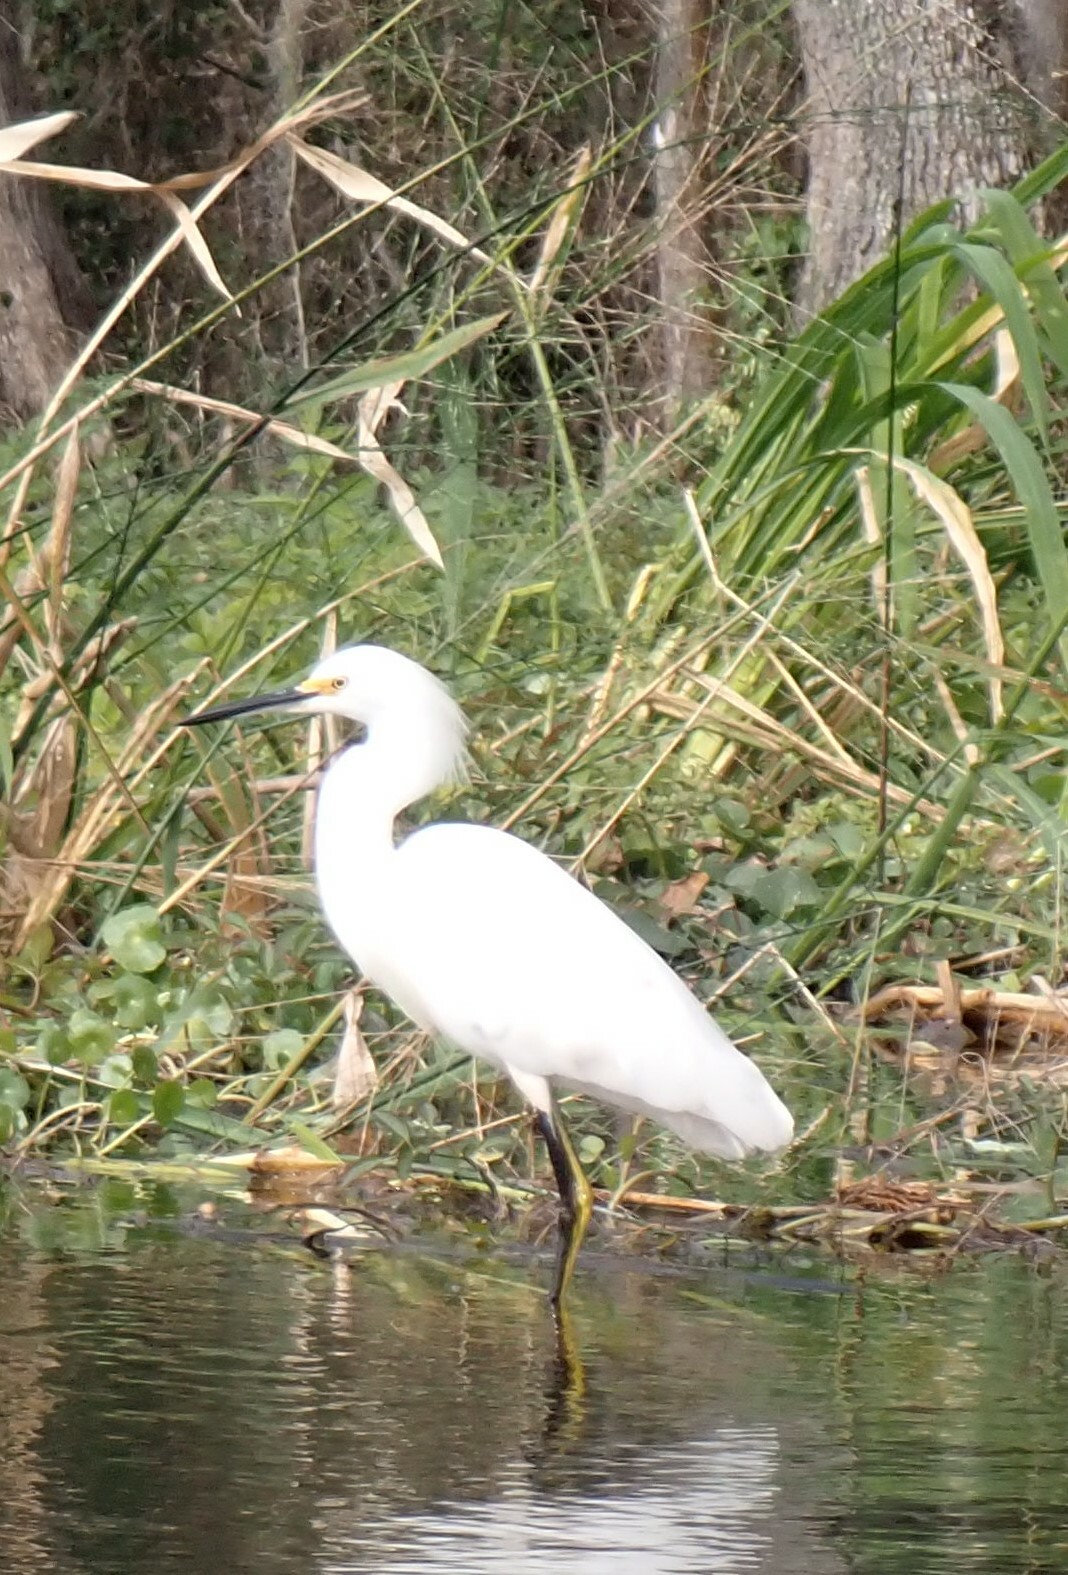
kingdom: Animalia
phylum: Chordata
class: Aves
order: Pelecaniformes
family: Ardeidae
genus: Egretta
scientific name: Egretta thula
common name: Snowy egret
